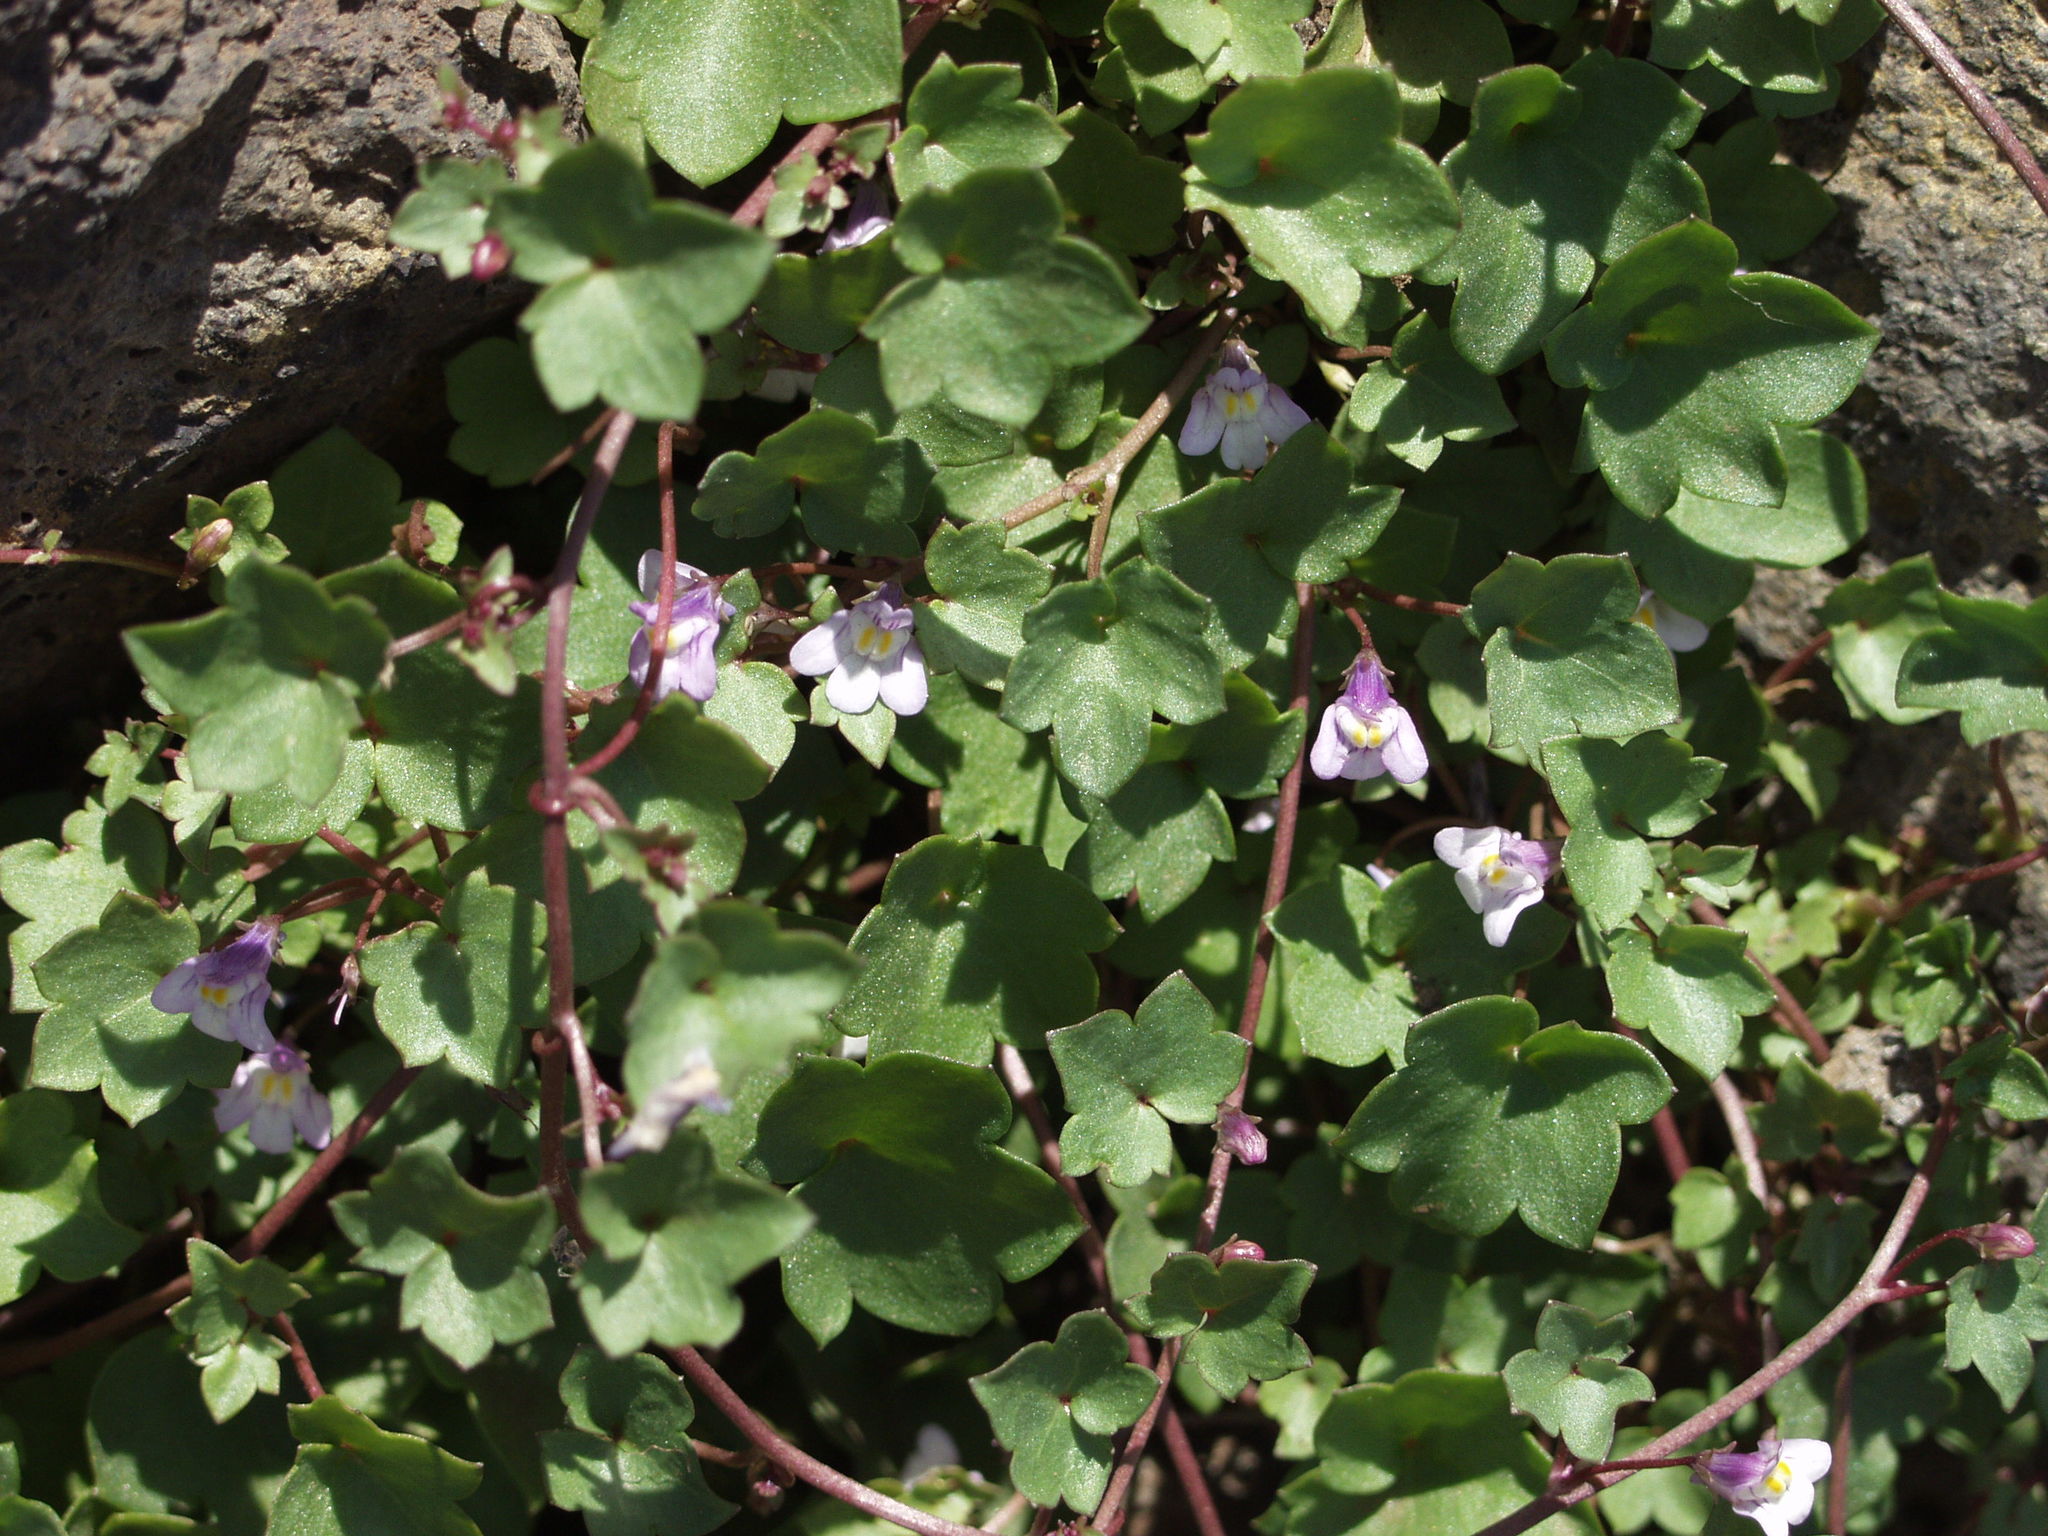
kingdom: Plantae
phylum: Tracheophyta
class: Magnoliopsida
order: Lamiales
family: Plantaginaceae
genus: Cymbalaria
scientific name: Cymbalaria muralis
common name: Ivy-leaved toadflax
